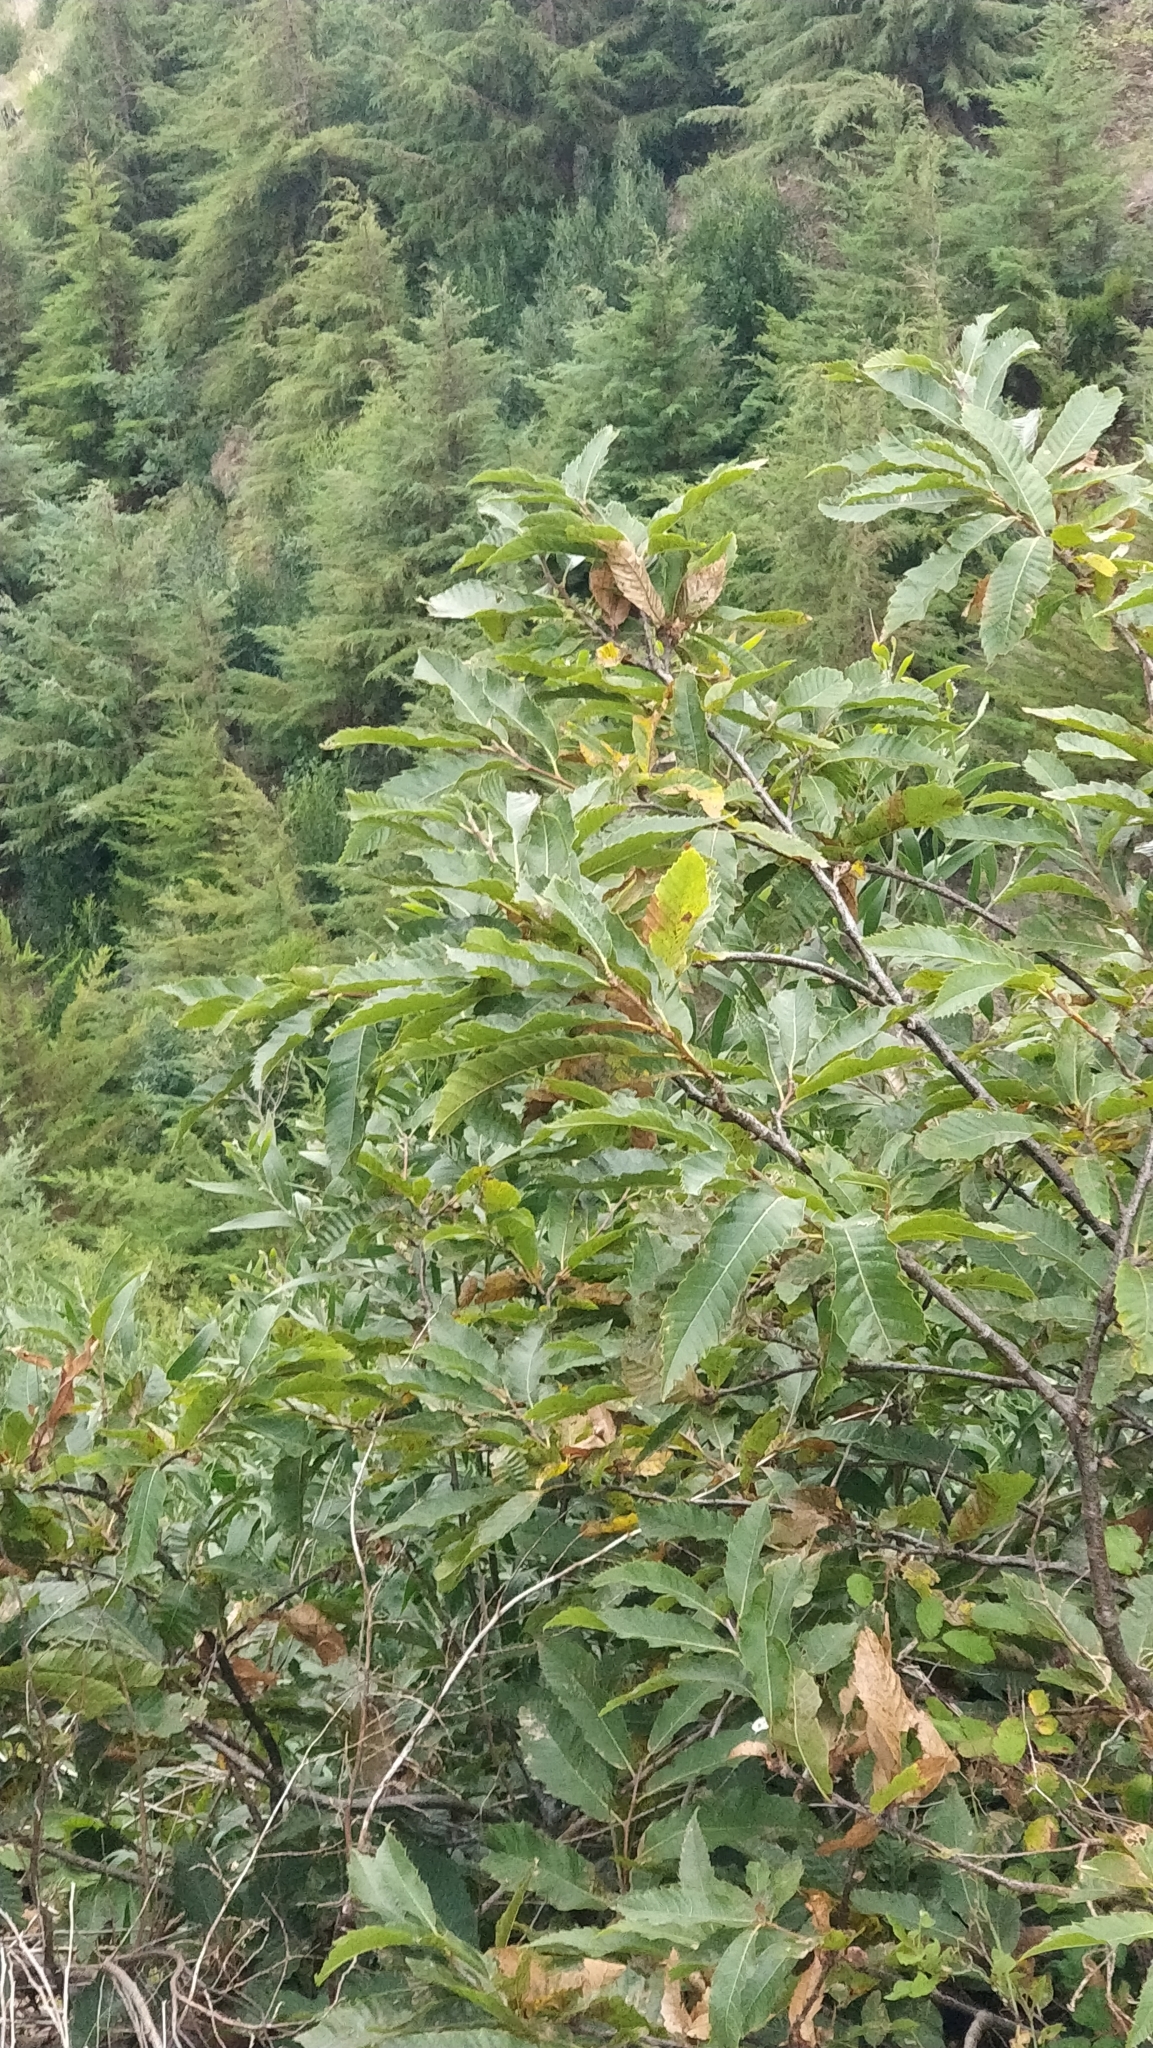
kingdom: Plantae
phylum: Tracheophyta
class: Magnoliopsida
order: Fagales
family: Fagaceae
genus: Castanea
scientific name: Castanea sativa
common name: Sweet chestnut
